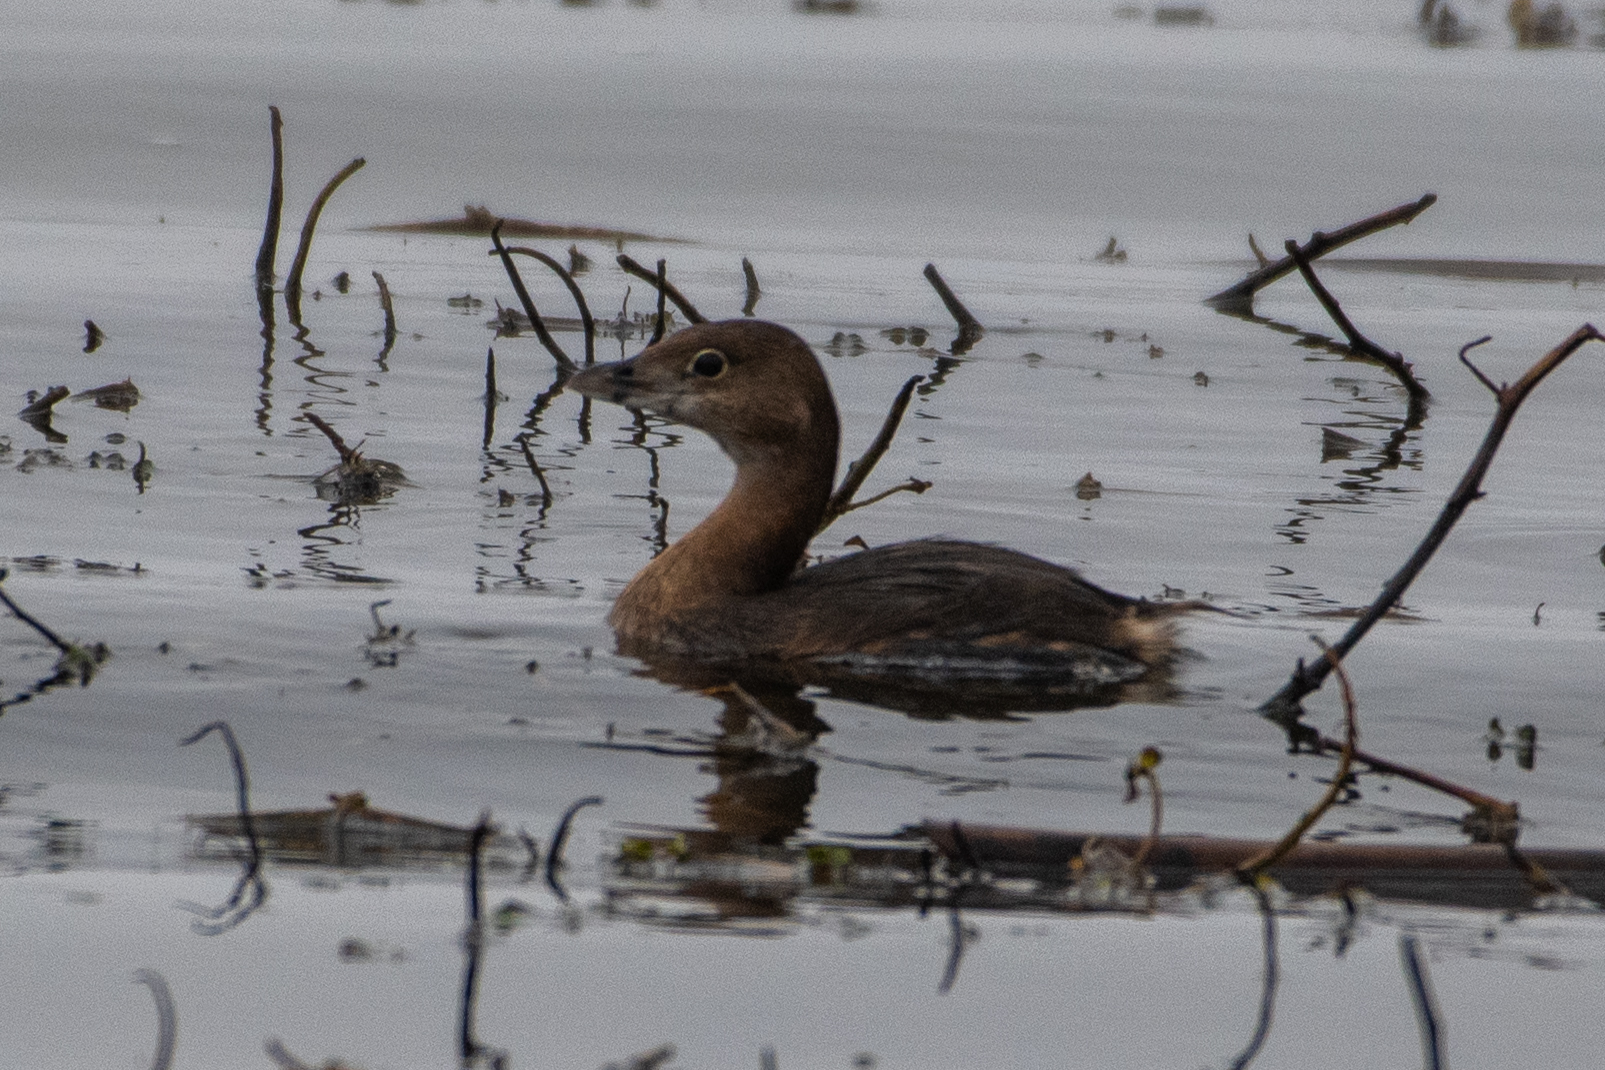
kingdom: Animalia
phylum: Chordata
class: Aves
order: Podicipediformes
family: Podicipedidae
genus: Podilymbus
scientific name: Podilymbus podiceps
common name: Pied-billed grebe
